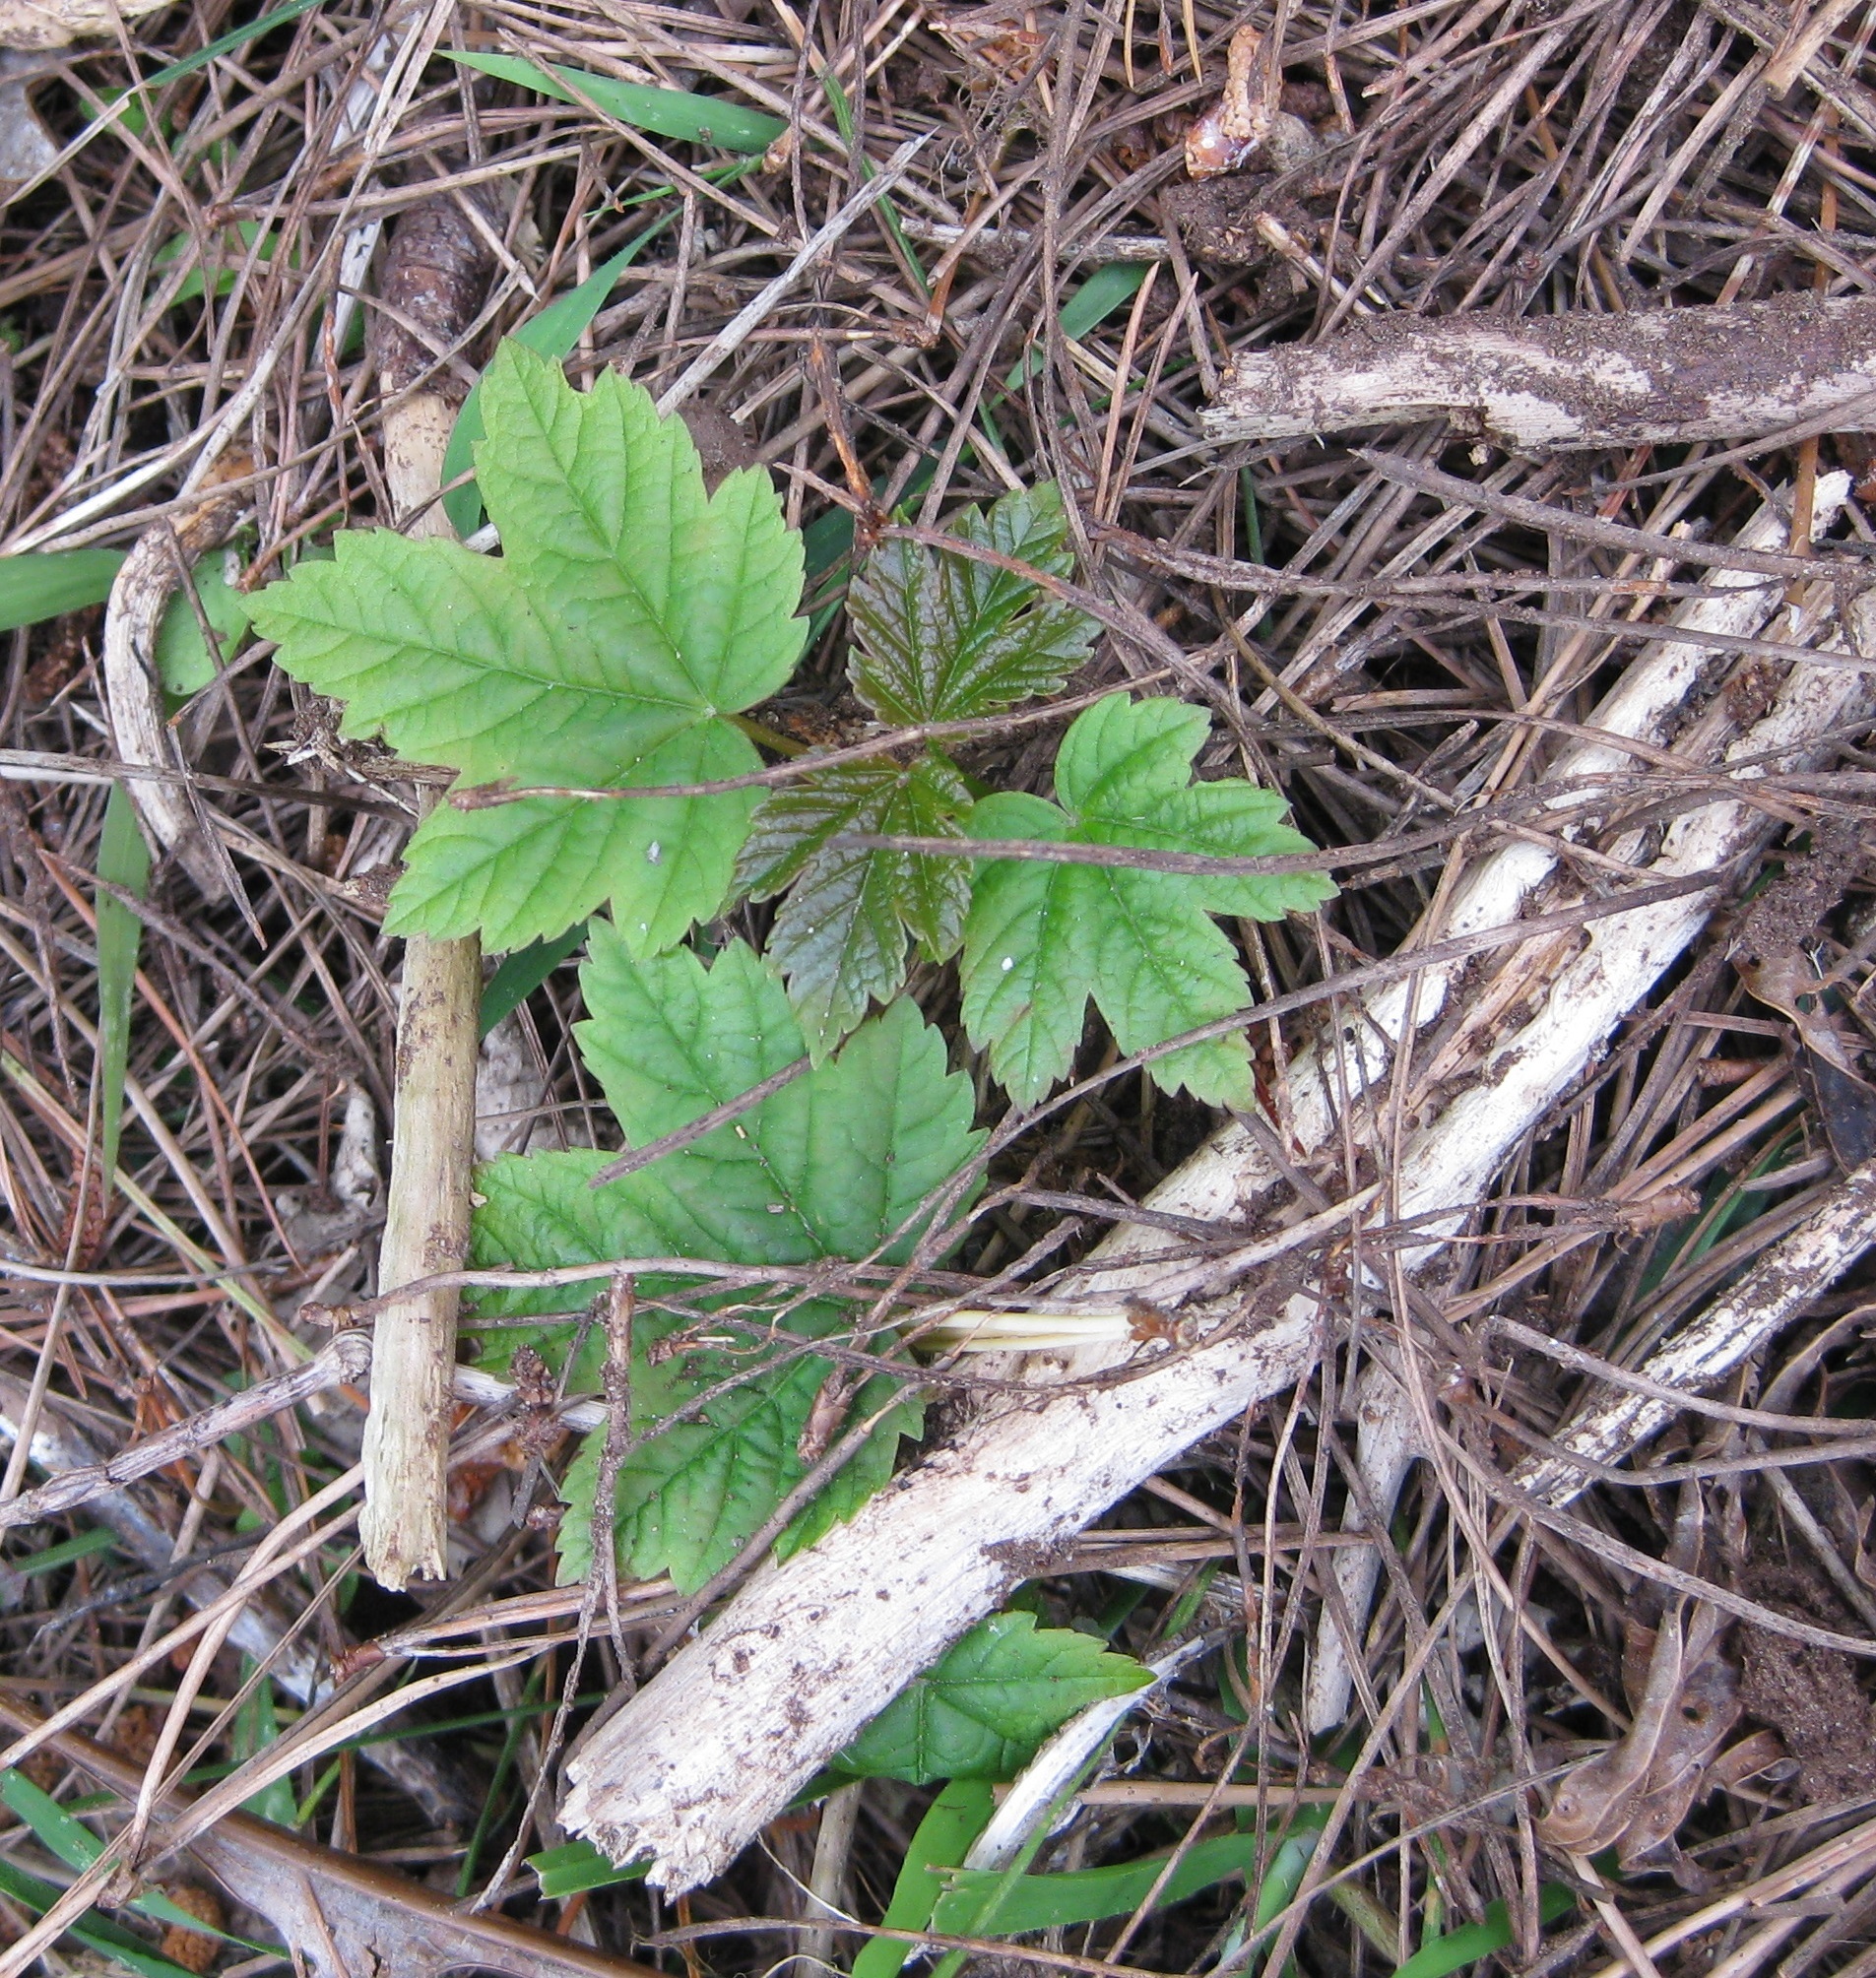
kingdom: Plantae
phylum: Tracheophyta
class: Magnoliopsida
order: Sapindales
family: Sapindaceae
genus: Acer
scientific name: Acer pseudoplatanus
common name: Sycamore
